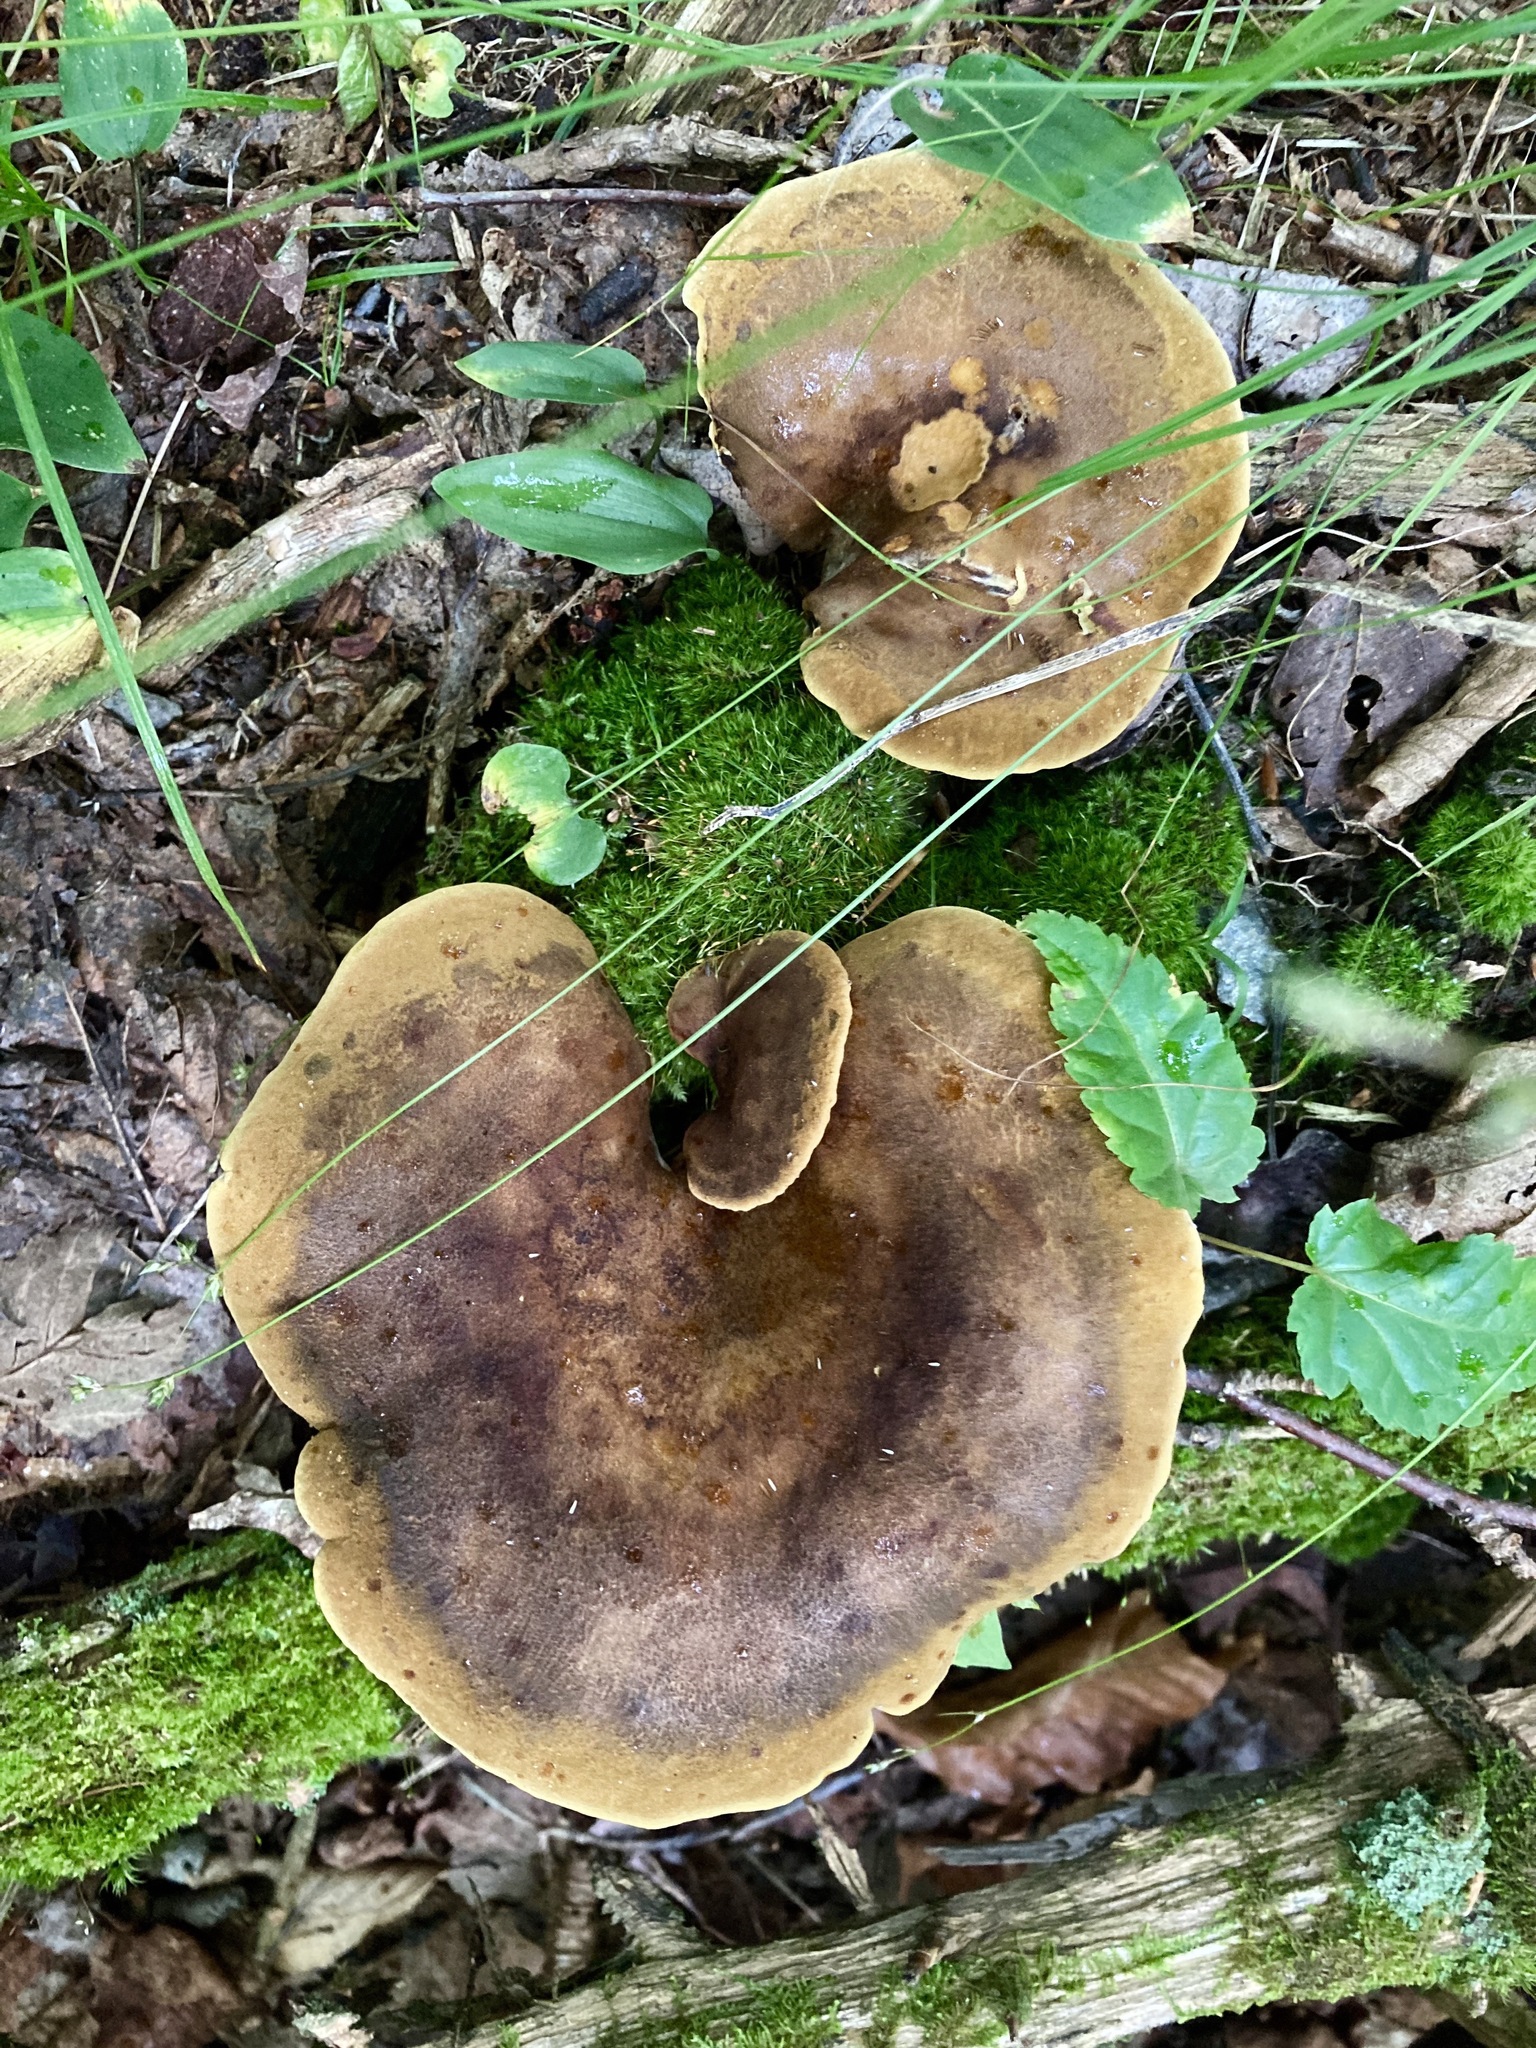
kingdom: Fungi
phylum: Basidiomycota
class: Agaricomycetes
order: Boletales
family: Boletinellaceae
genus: Boletinellus
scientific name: Boletinellus merulioides
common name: Ash tree bolete
